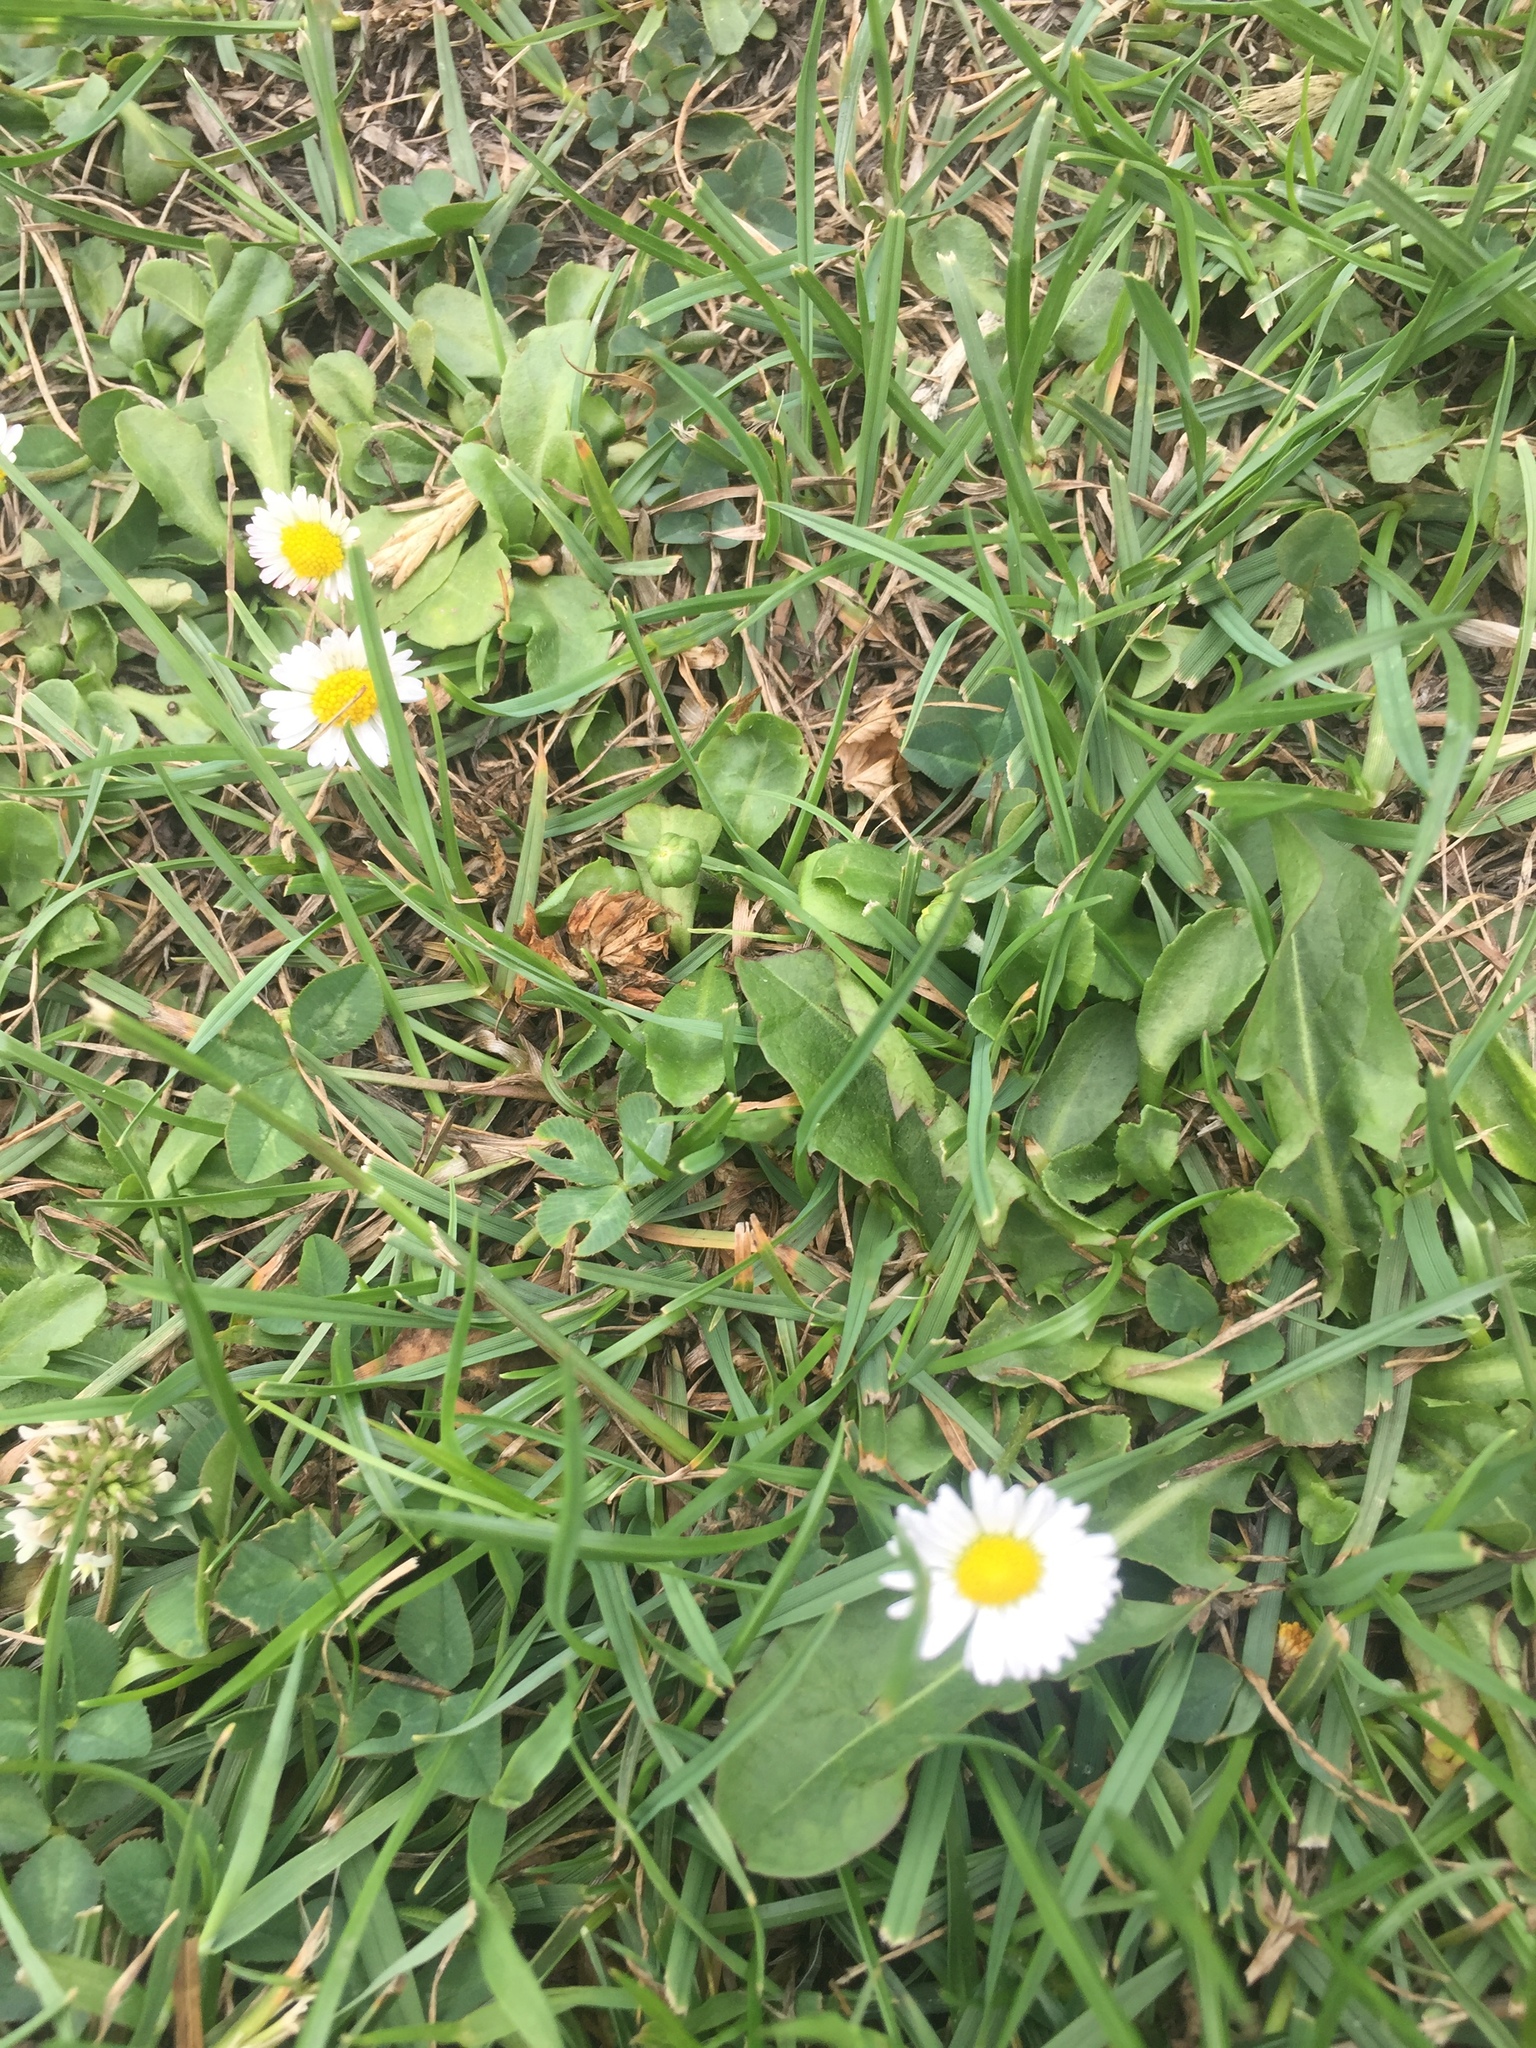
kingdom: Plantae
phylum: Tracheophyta
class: Magnoliopsida
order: Asterales
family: Asteraceae
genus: Bellis
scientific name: Bellis perennis
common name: Lawndaisy
